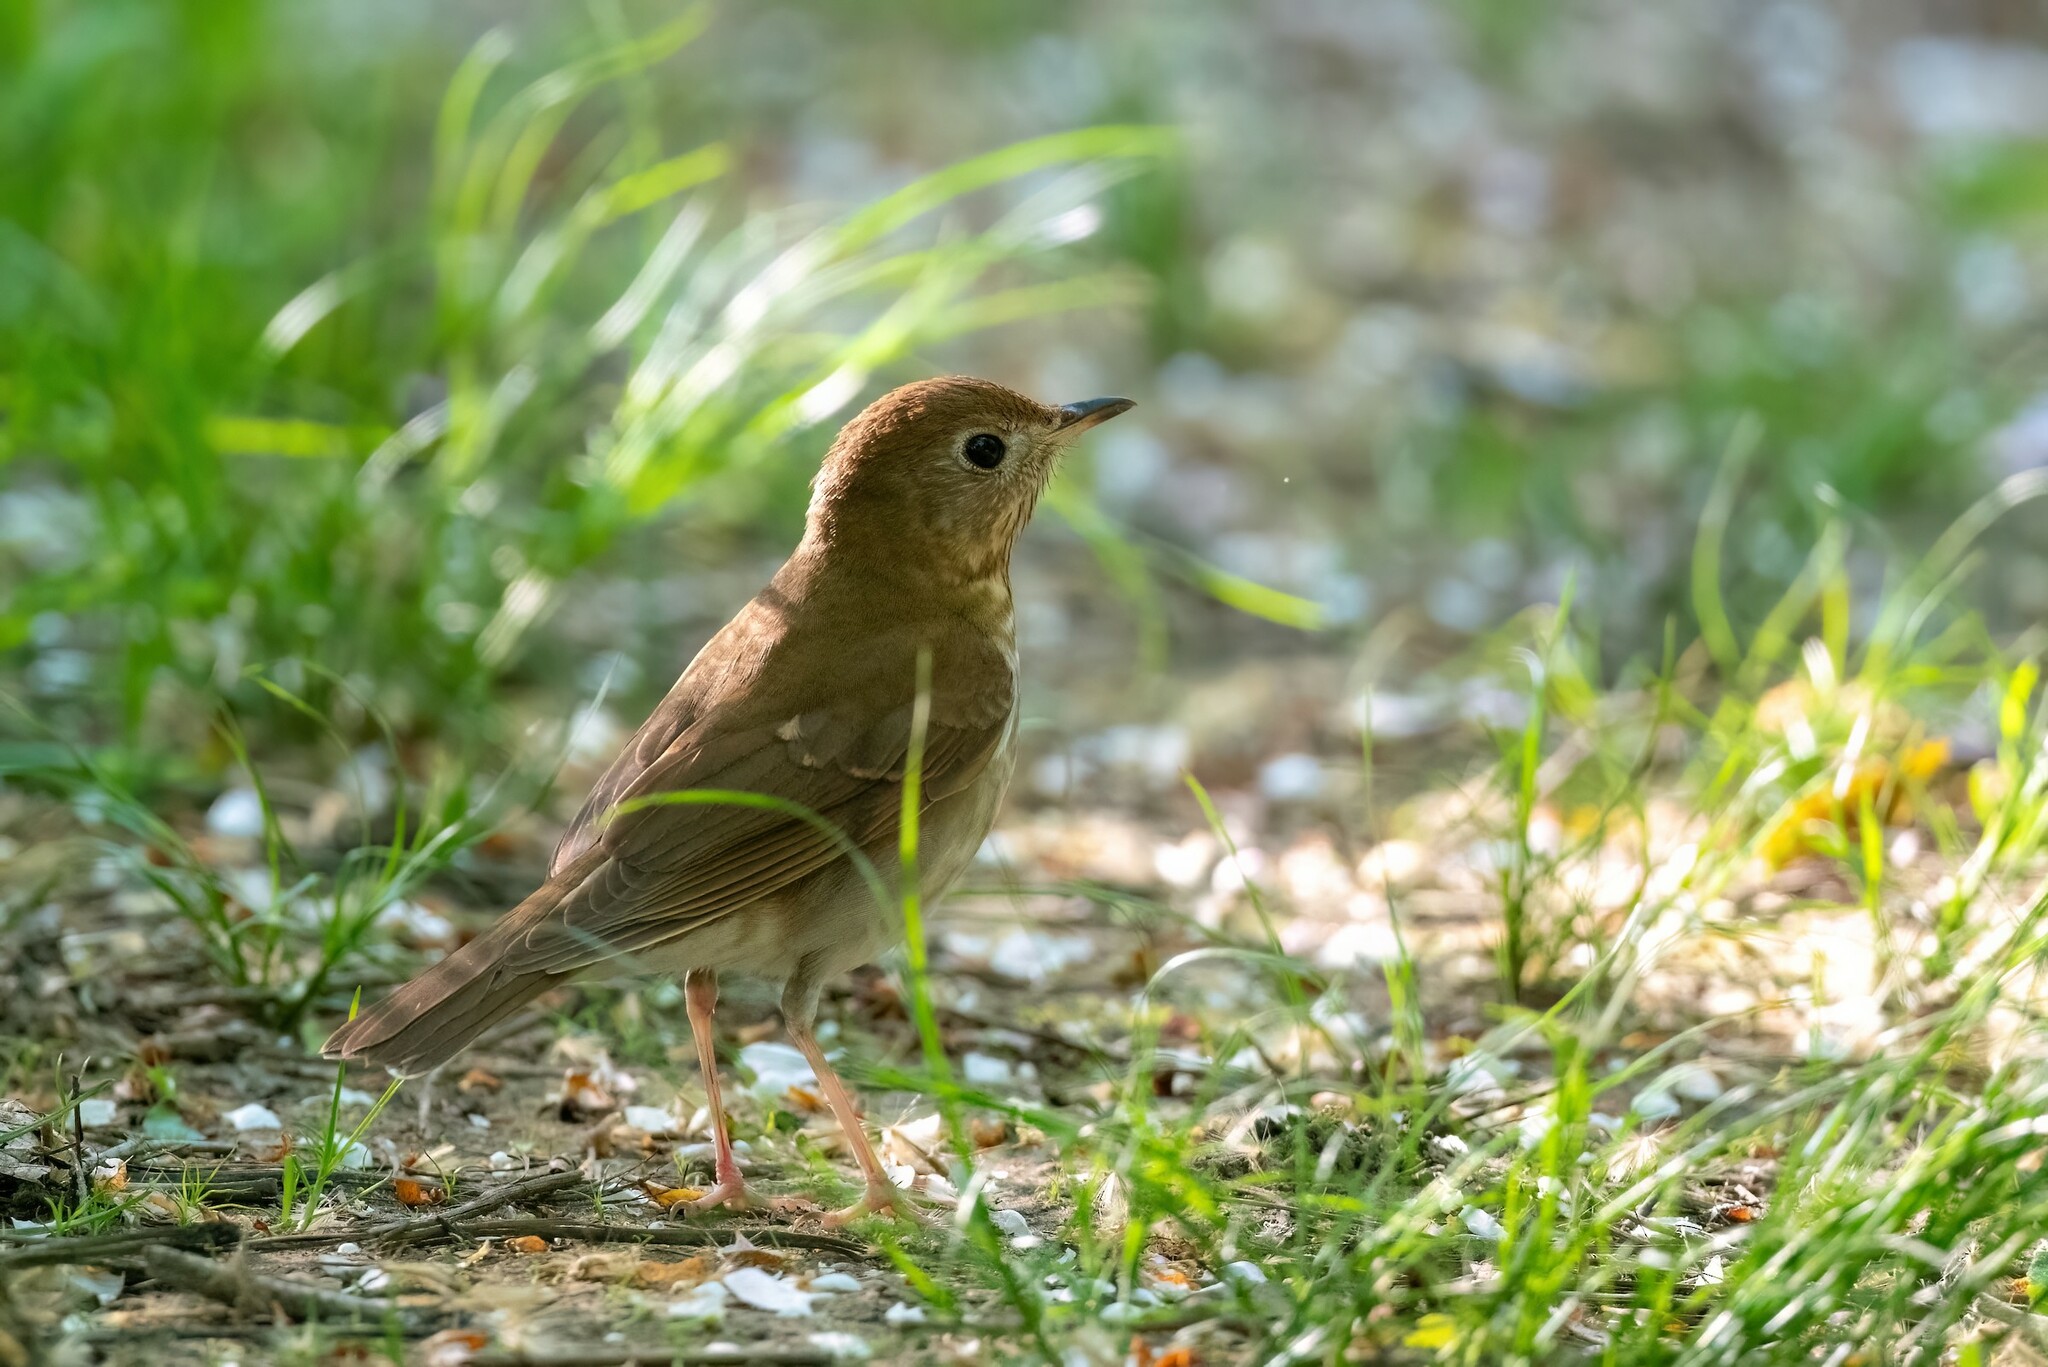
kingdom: Animalia
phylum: Chordata
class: Aves
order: Passeriformes
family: Turdidae
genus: Catharus
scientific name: Catharus fuscescens
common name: Veery
